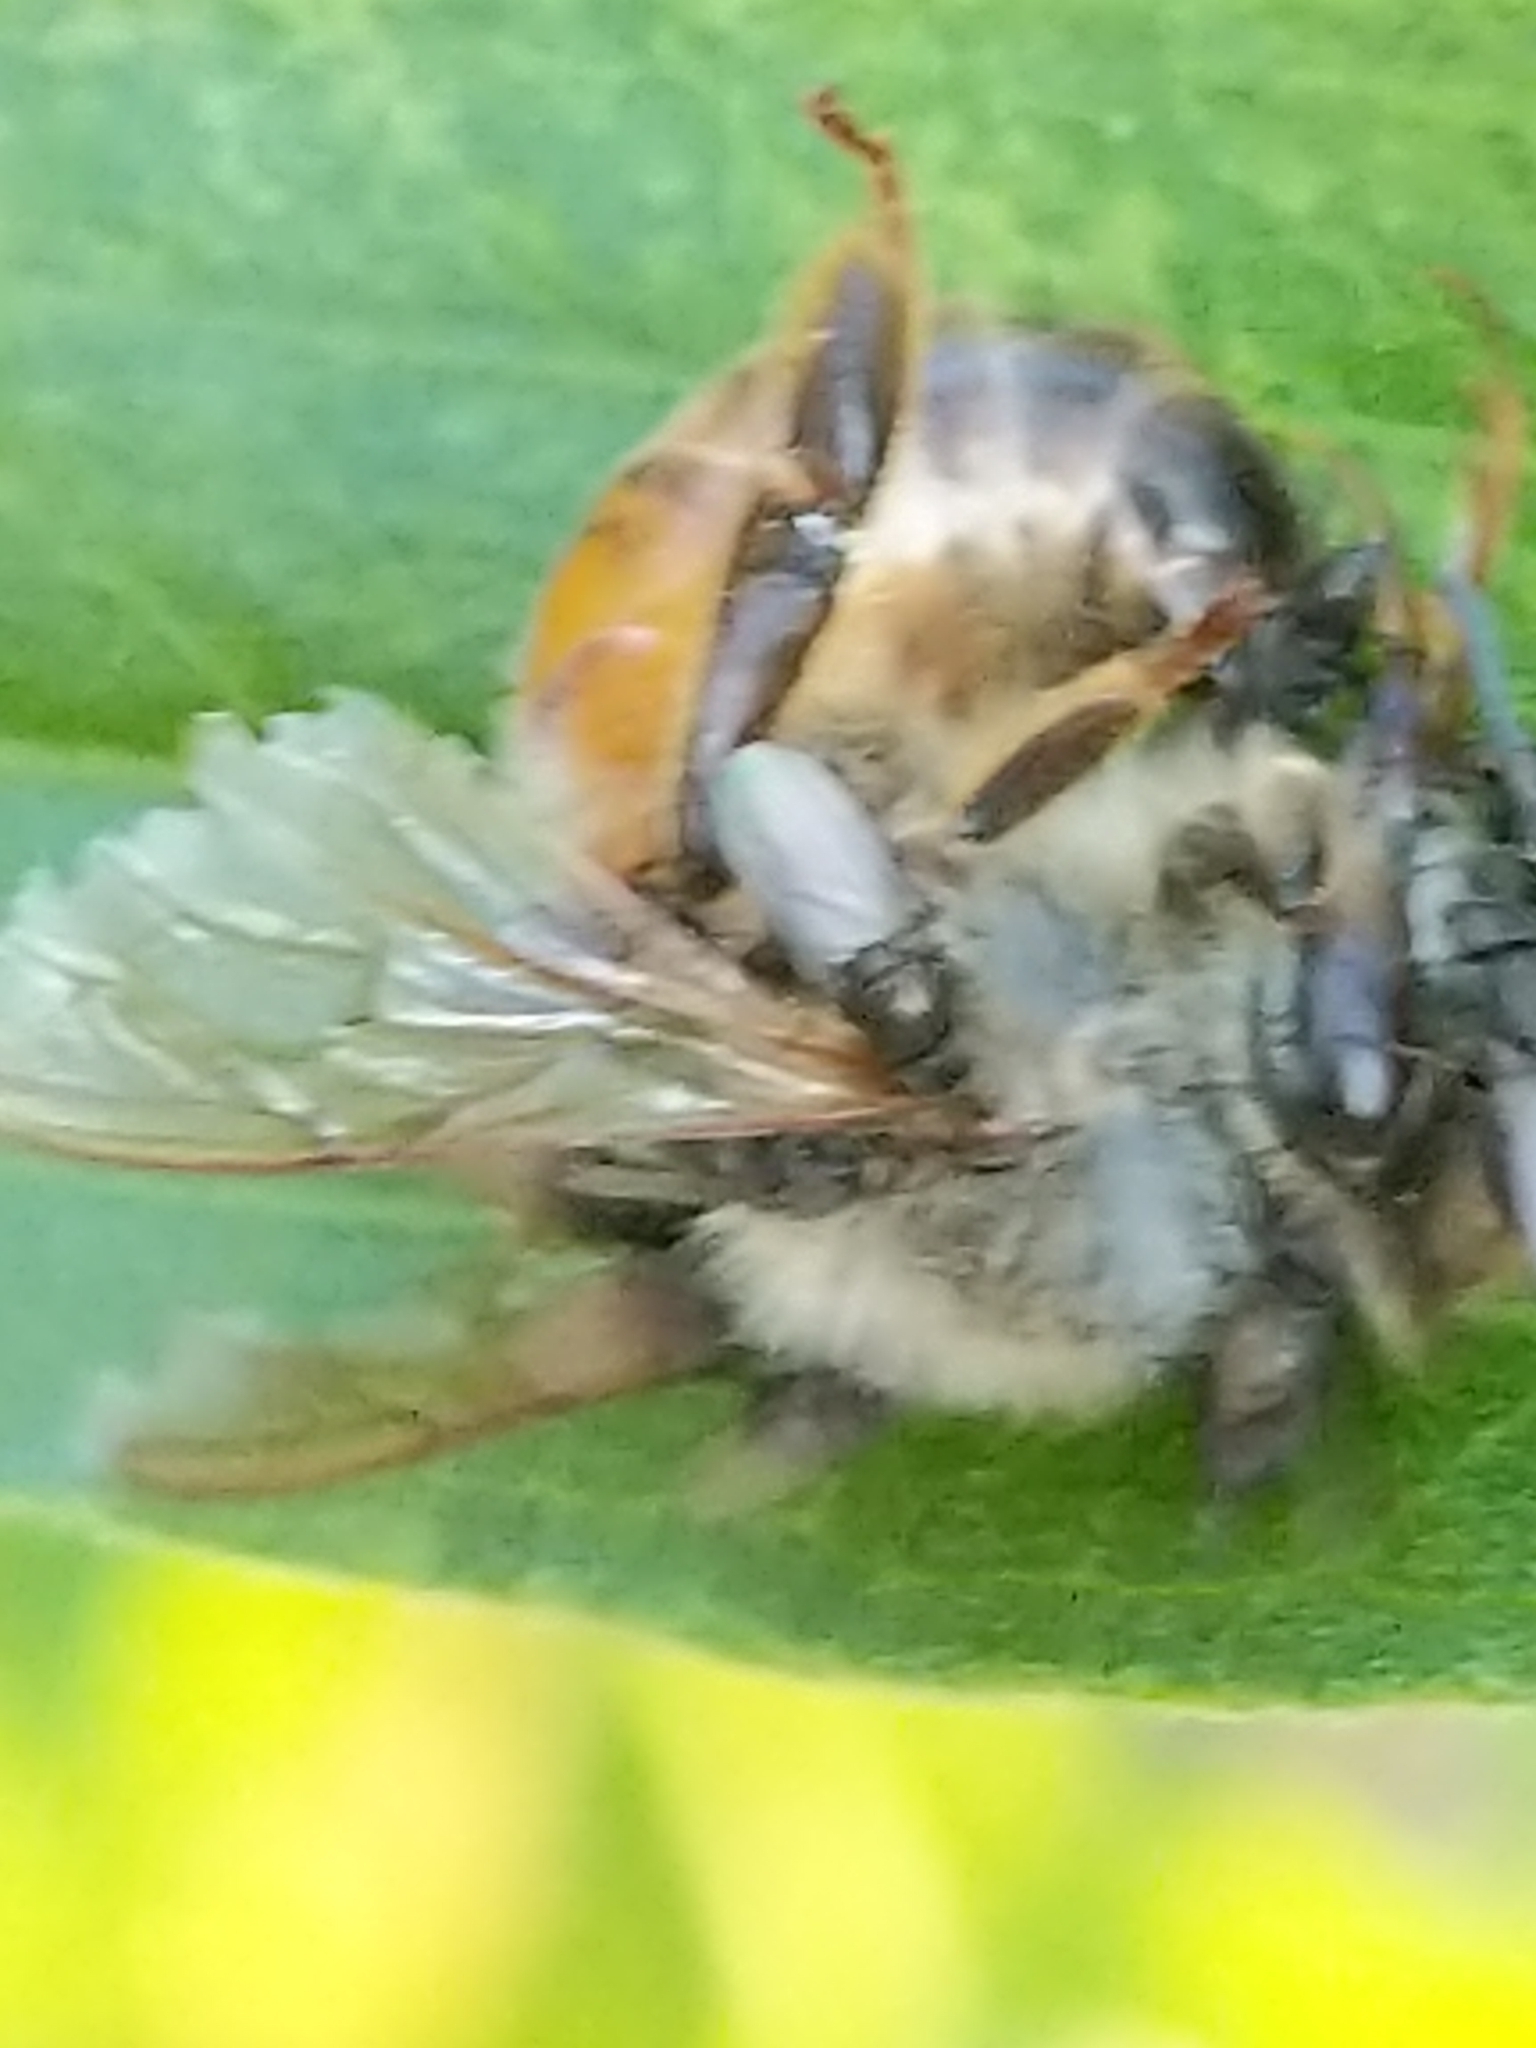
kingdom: Animalia
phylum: Arthropoda
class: Insecta
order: Hymenoptera
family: Apidae
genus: Apis
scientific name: Apis mellifera
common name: Honey bee
